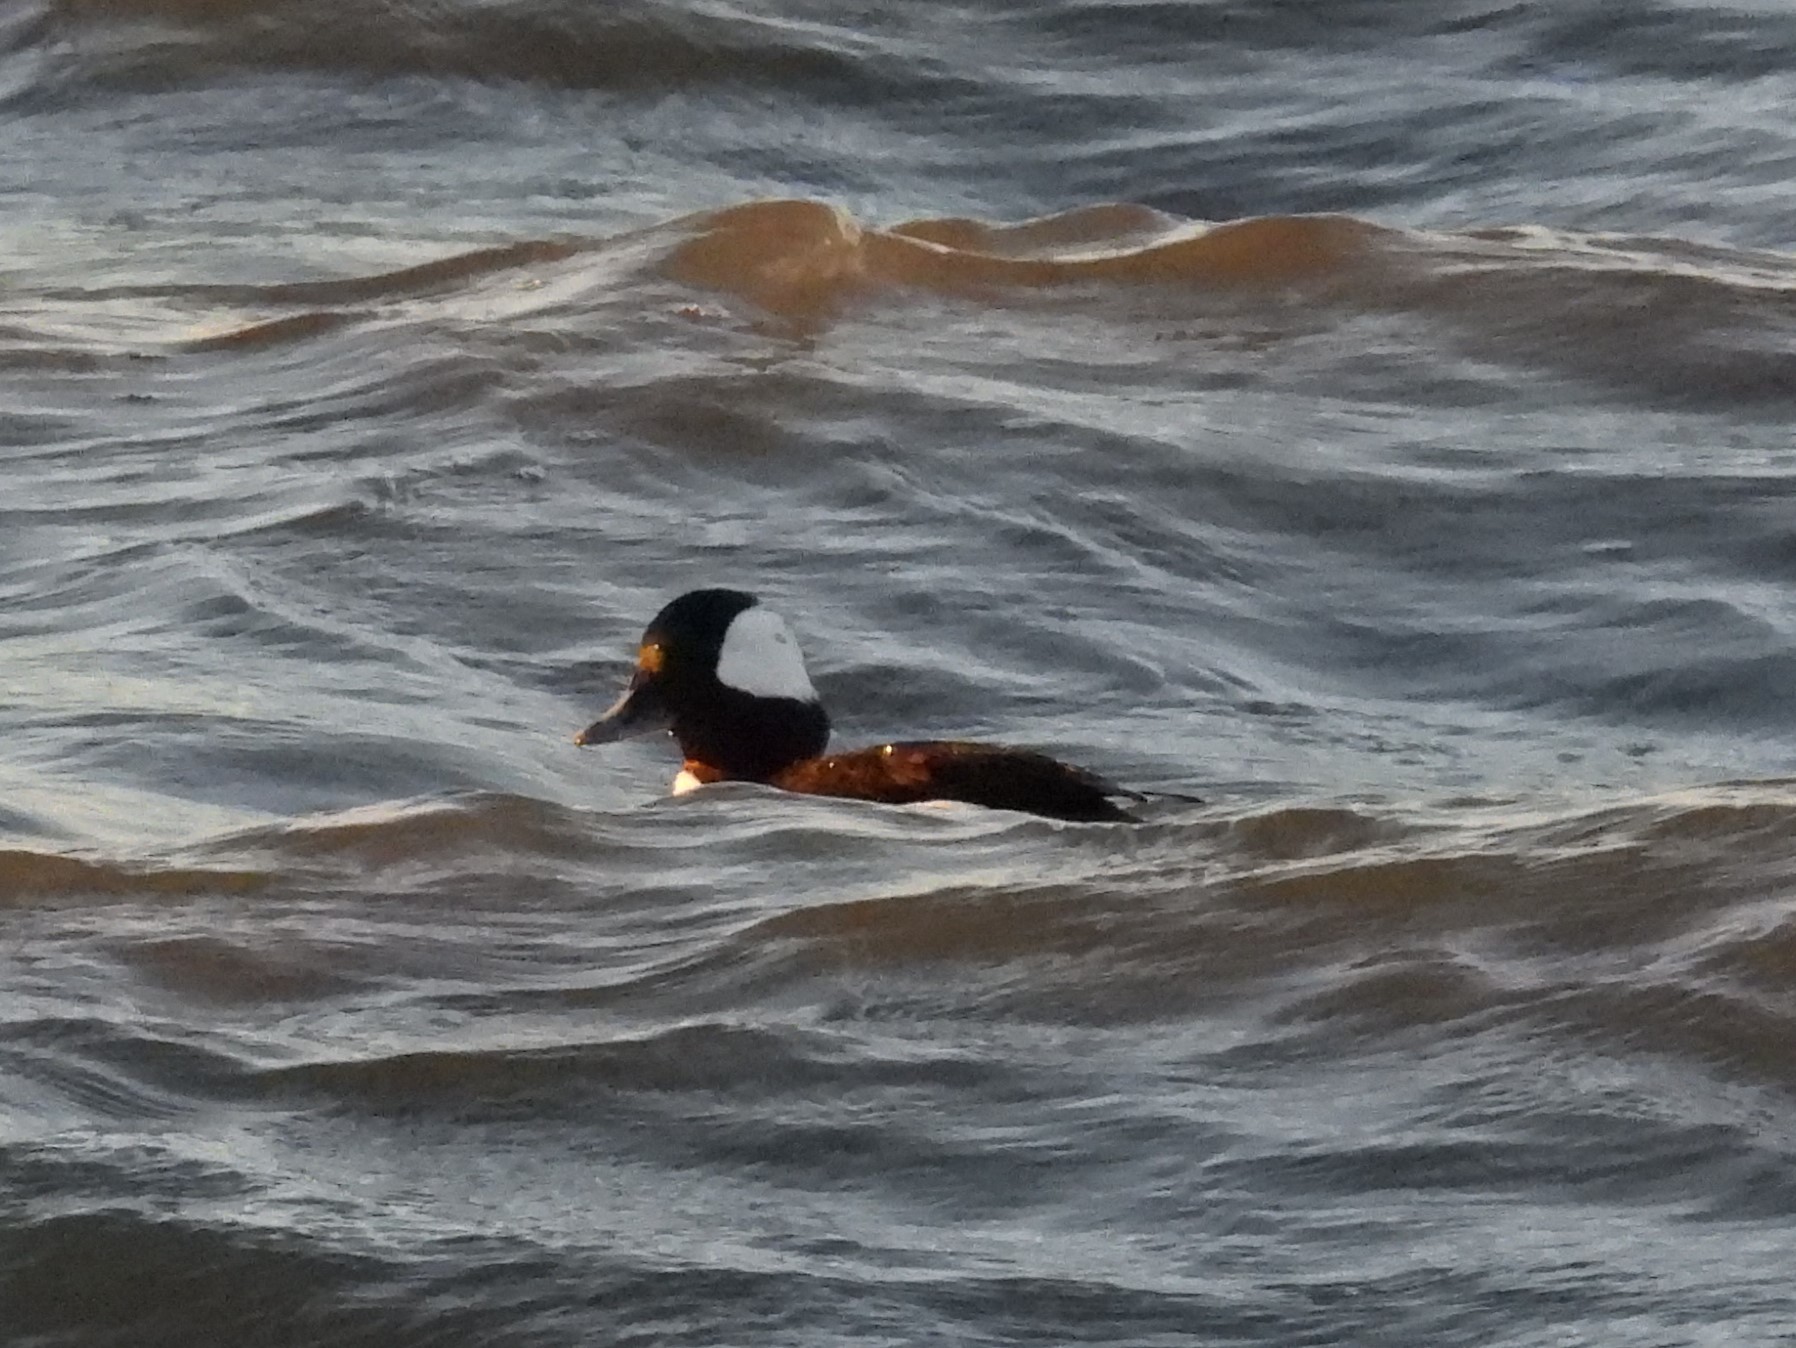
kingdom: Animalia
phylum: Chordata
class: Aves
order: Anseriformes
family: Anatidae
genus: Bucephala
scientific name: Bucephala albeola
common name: Bufflehead
